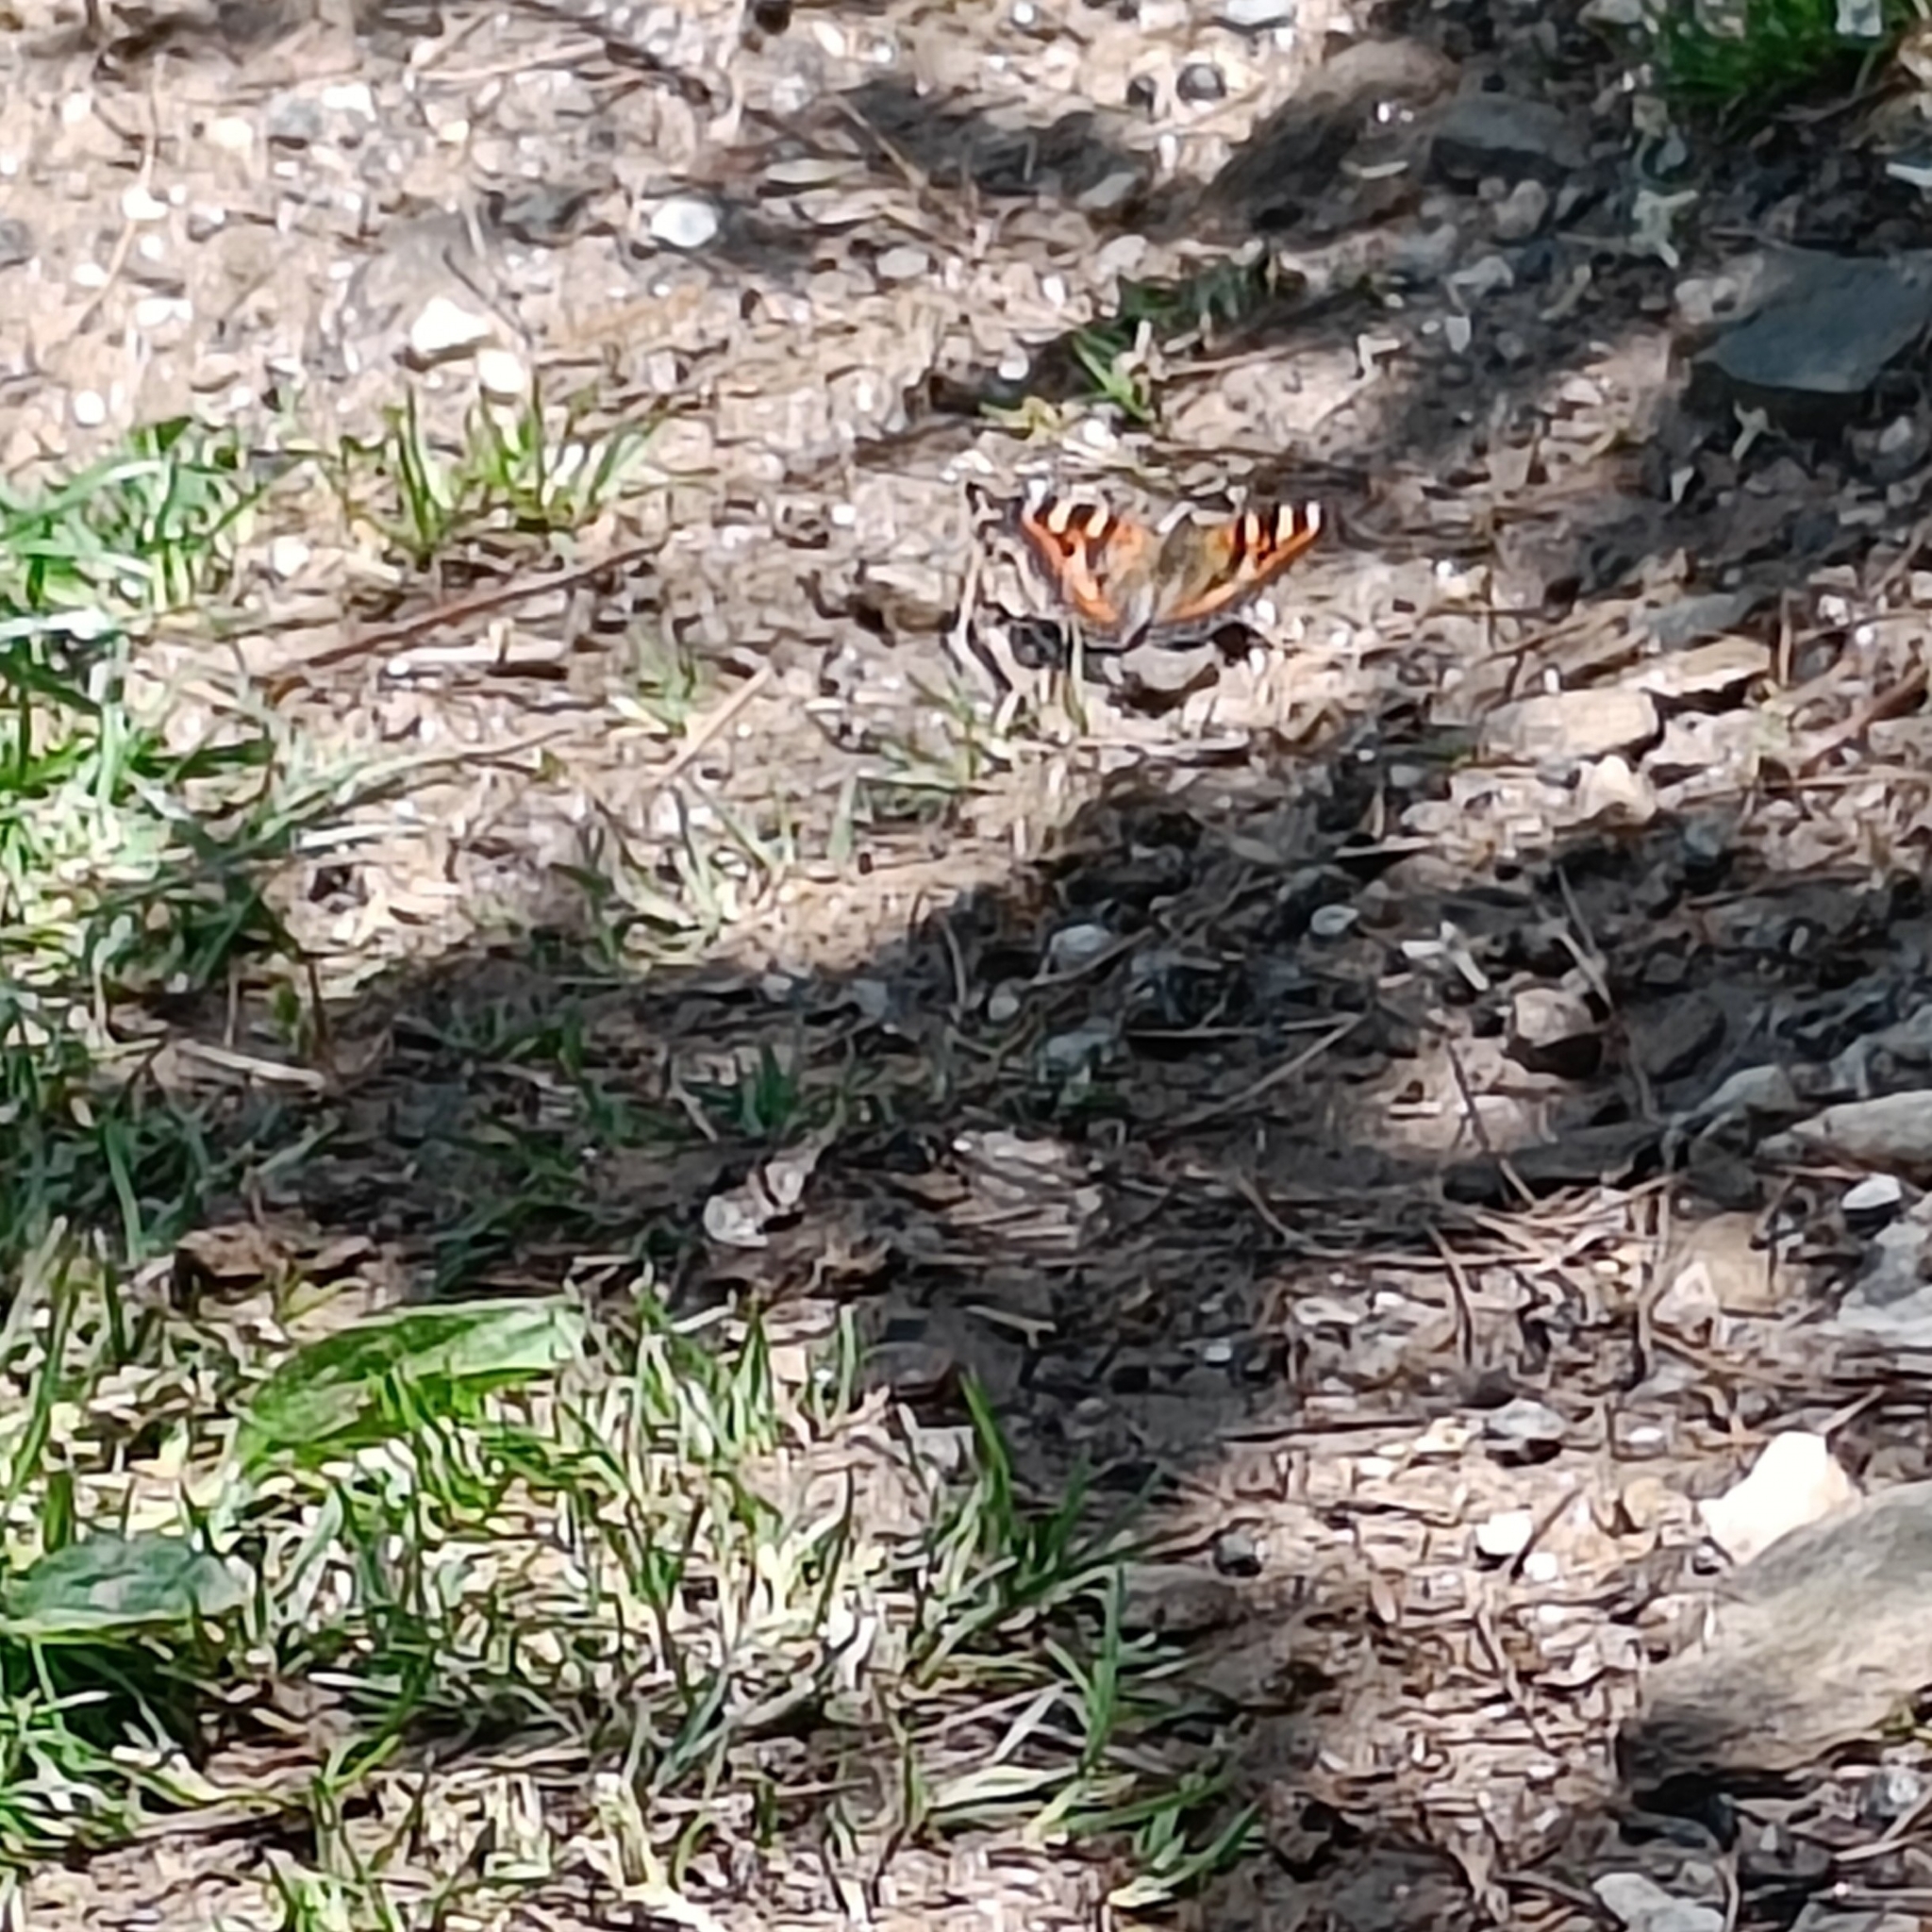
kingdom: Animalia
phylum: Arthropoda
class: Insecta
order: Lepidoptera
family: Nymphalidae
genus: Aglais
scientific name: Aglais caschmirensis
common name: Indian tortoiseshell
